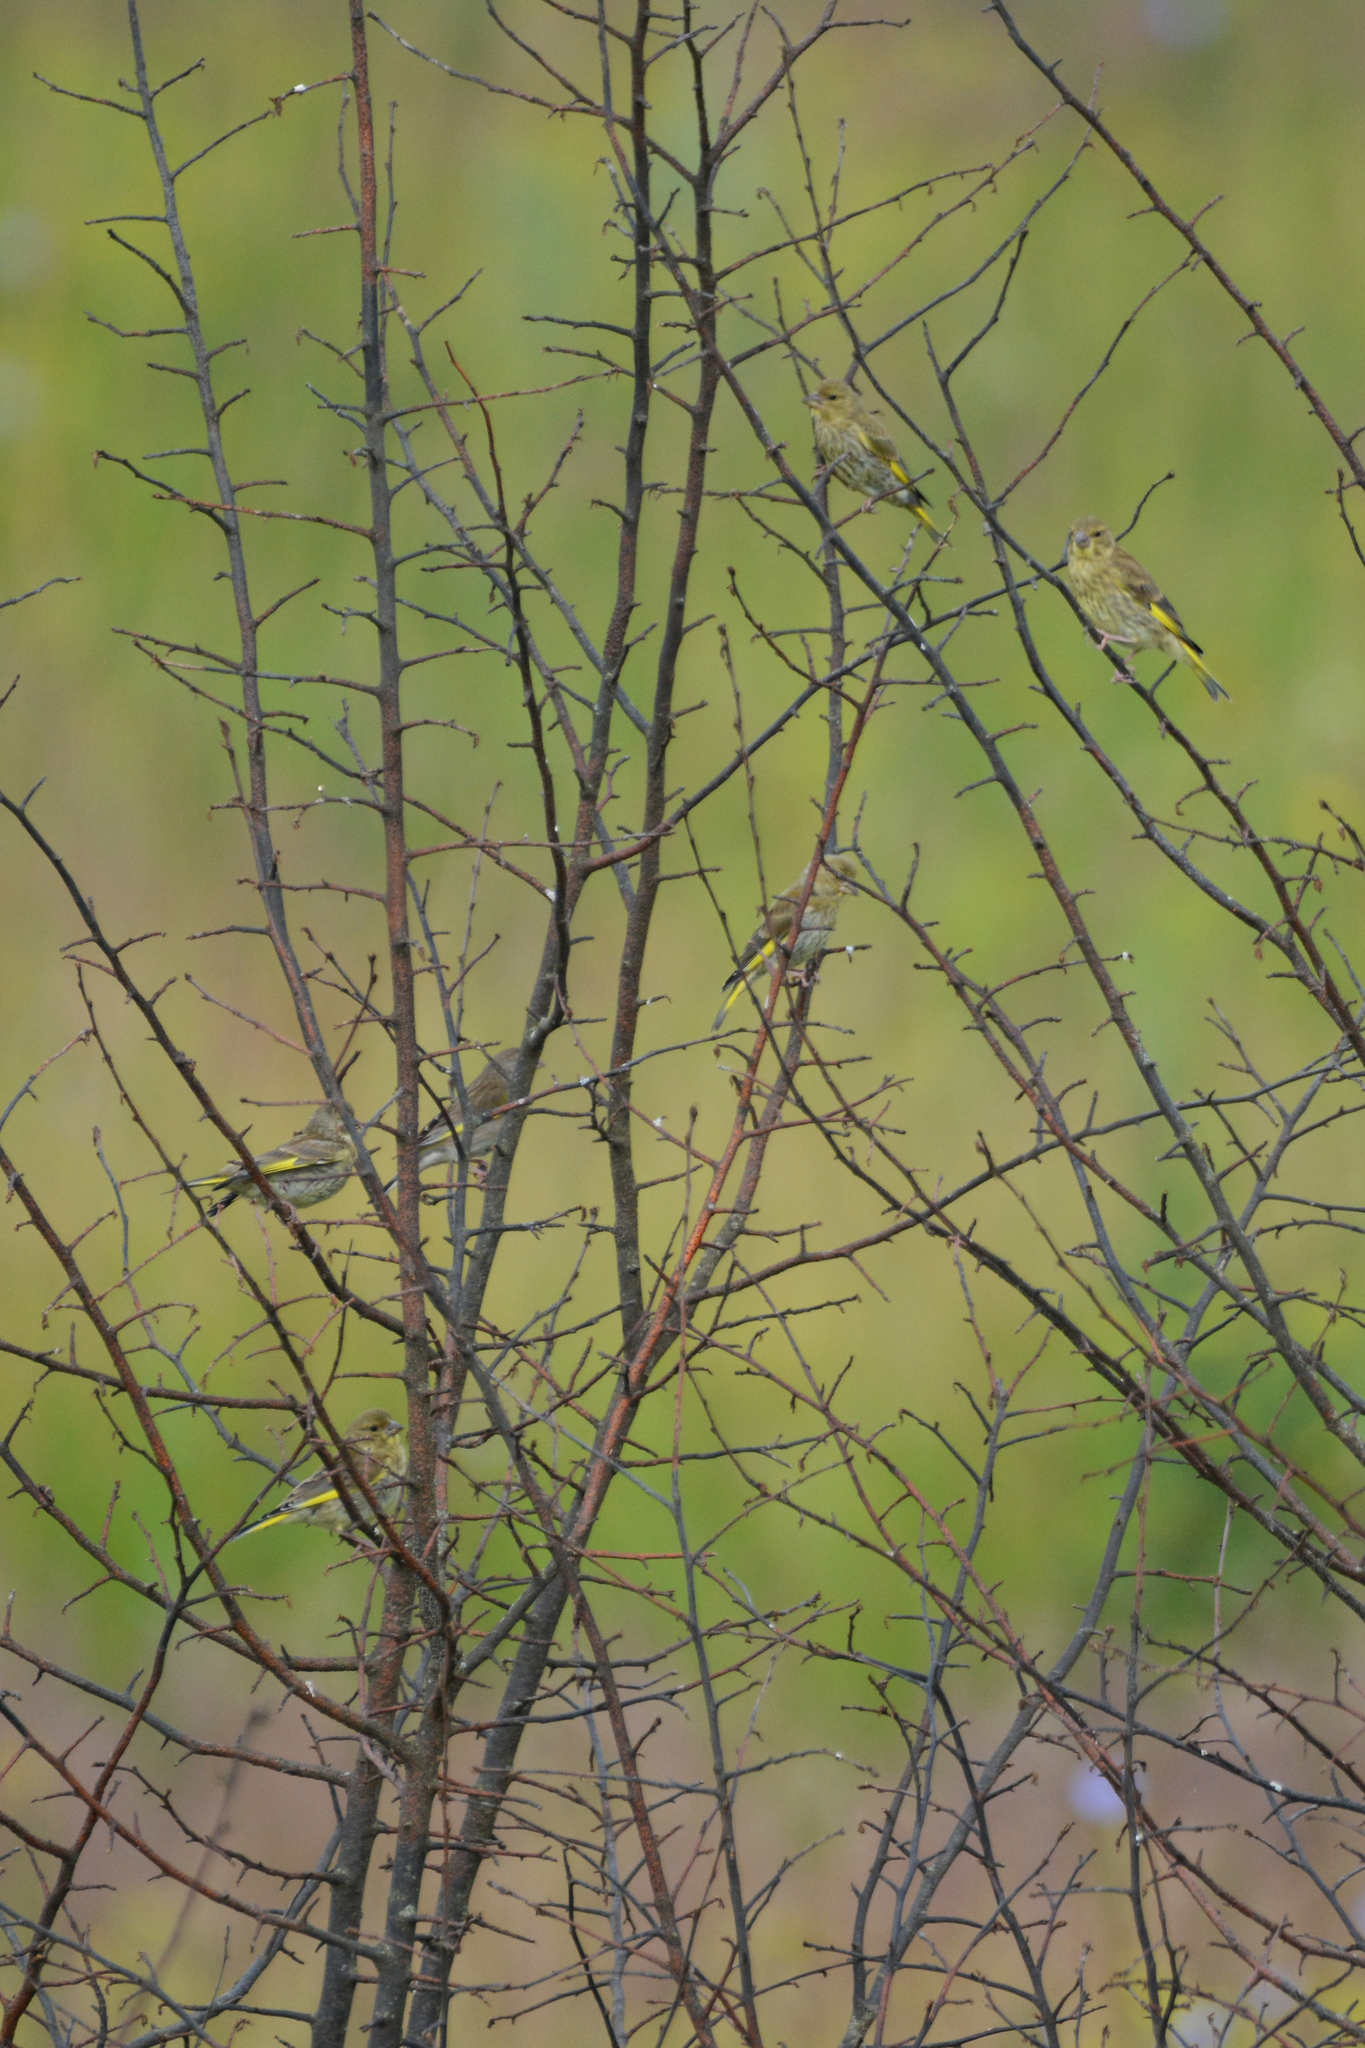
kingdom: Plantae
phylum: Tracheophyta
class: Liliopsida
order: Poales
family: Poaceae
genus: Chloris
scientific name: Chloris chloris
